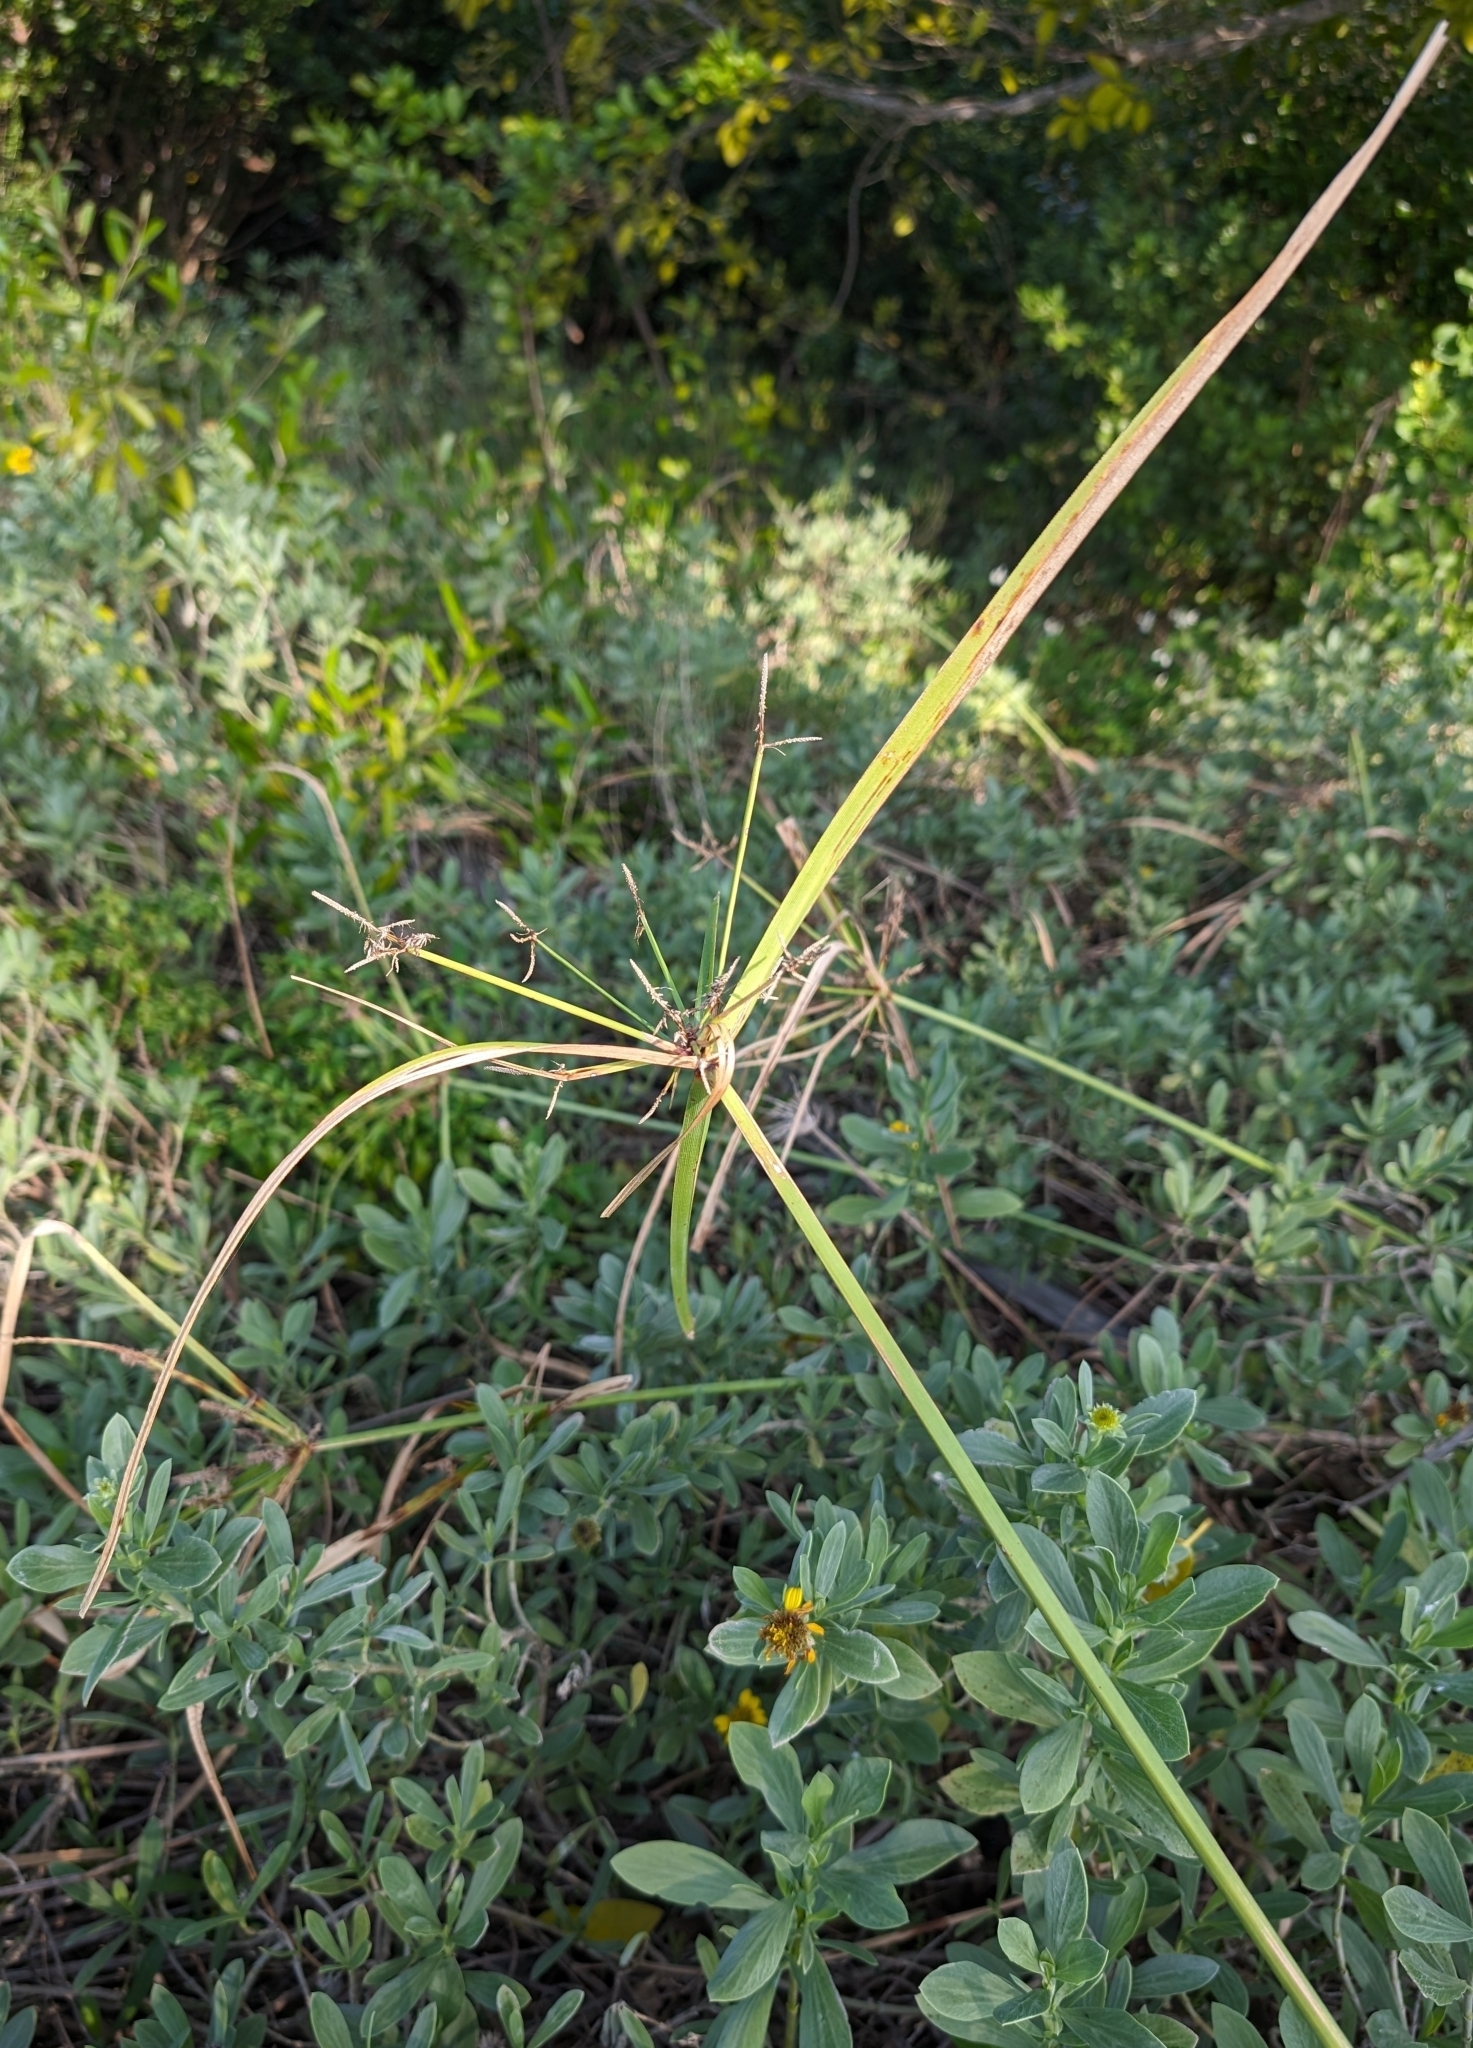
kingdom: Plantae
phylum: Tracheophyta
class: Liliopsida
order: Poales
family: Cyperaceae
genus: Cyperus
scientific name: Cyperus ligularis
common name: Swamp flat sedge
